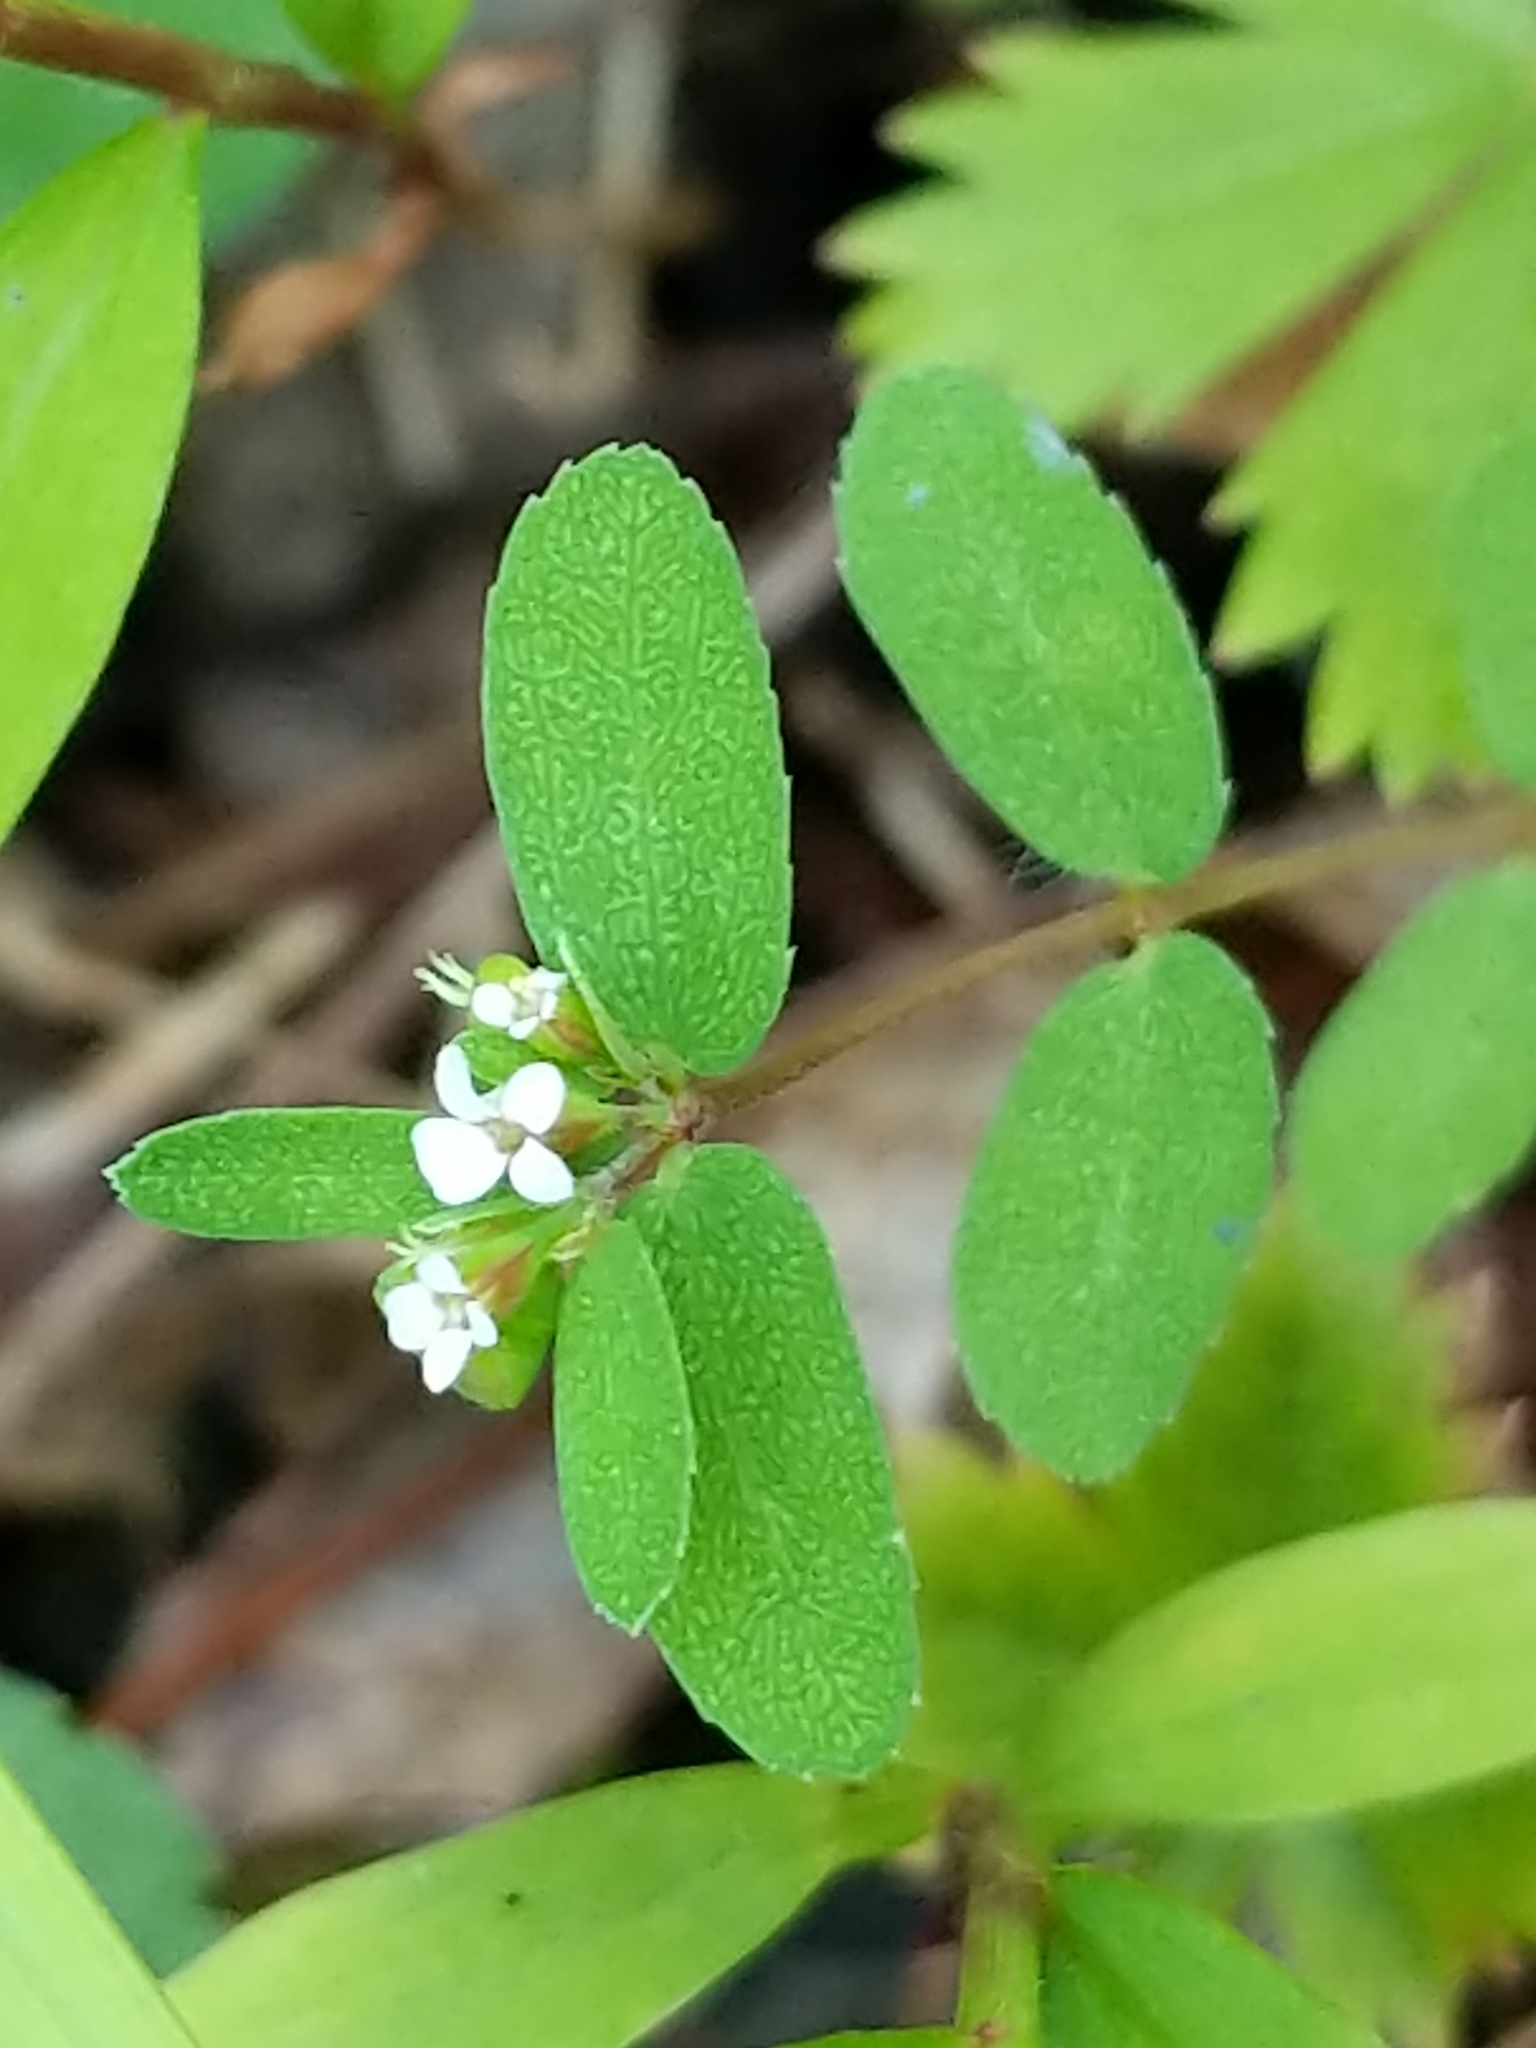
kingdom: Plantae
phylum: Tracheophyta
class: Magnoliopsida
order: Malpighiales
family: Euphorbiaceae
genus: Euphorbia
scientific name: Euphorbia nutans
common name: Eyebane
